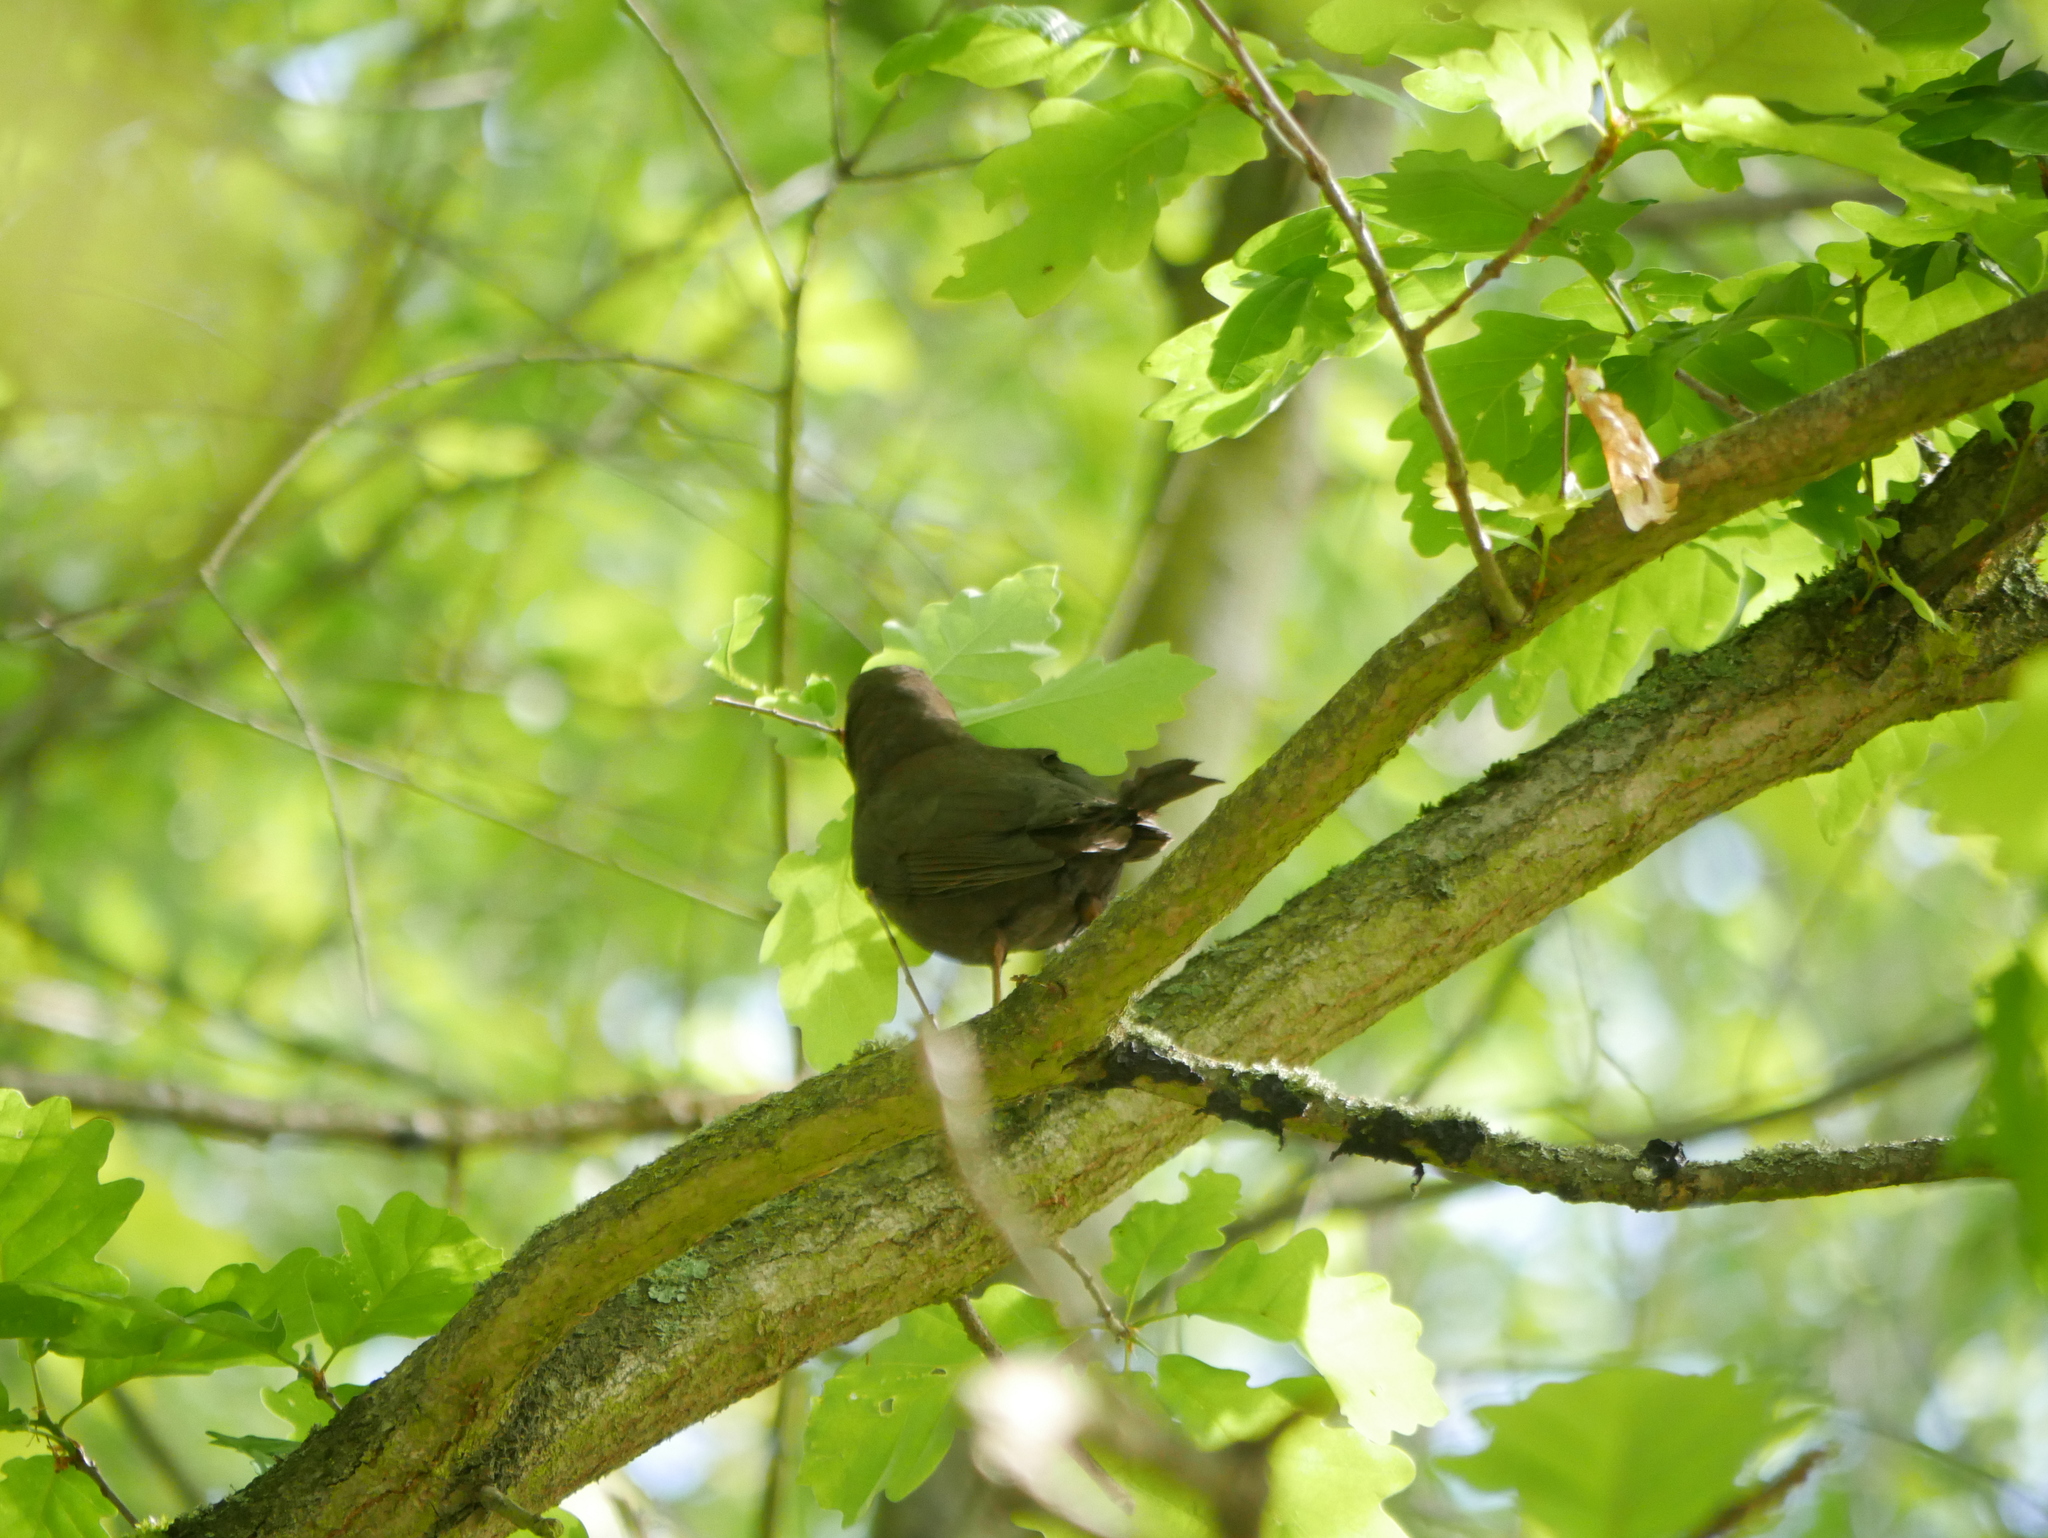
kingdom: Animalia
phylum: Chordata
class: Aves
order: Passeriformes
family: Turdidae
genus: Turdus
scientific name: Turdus merula
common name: Common blackbird
